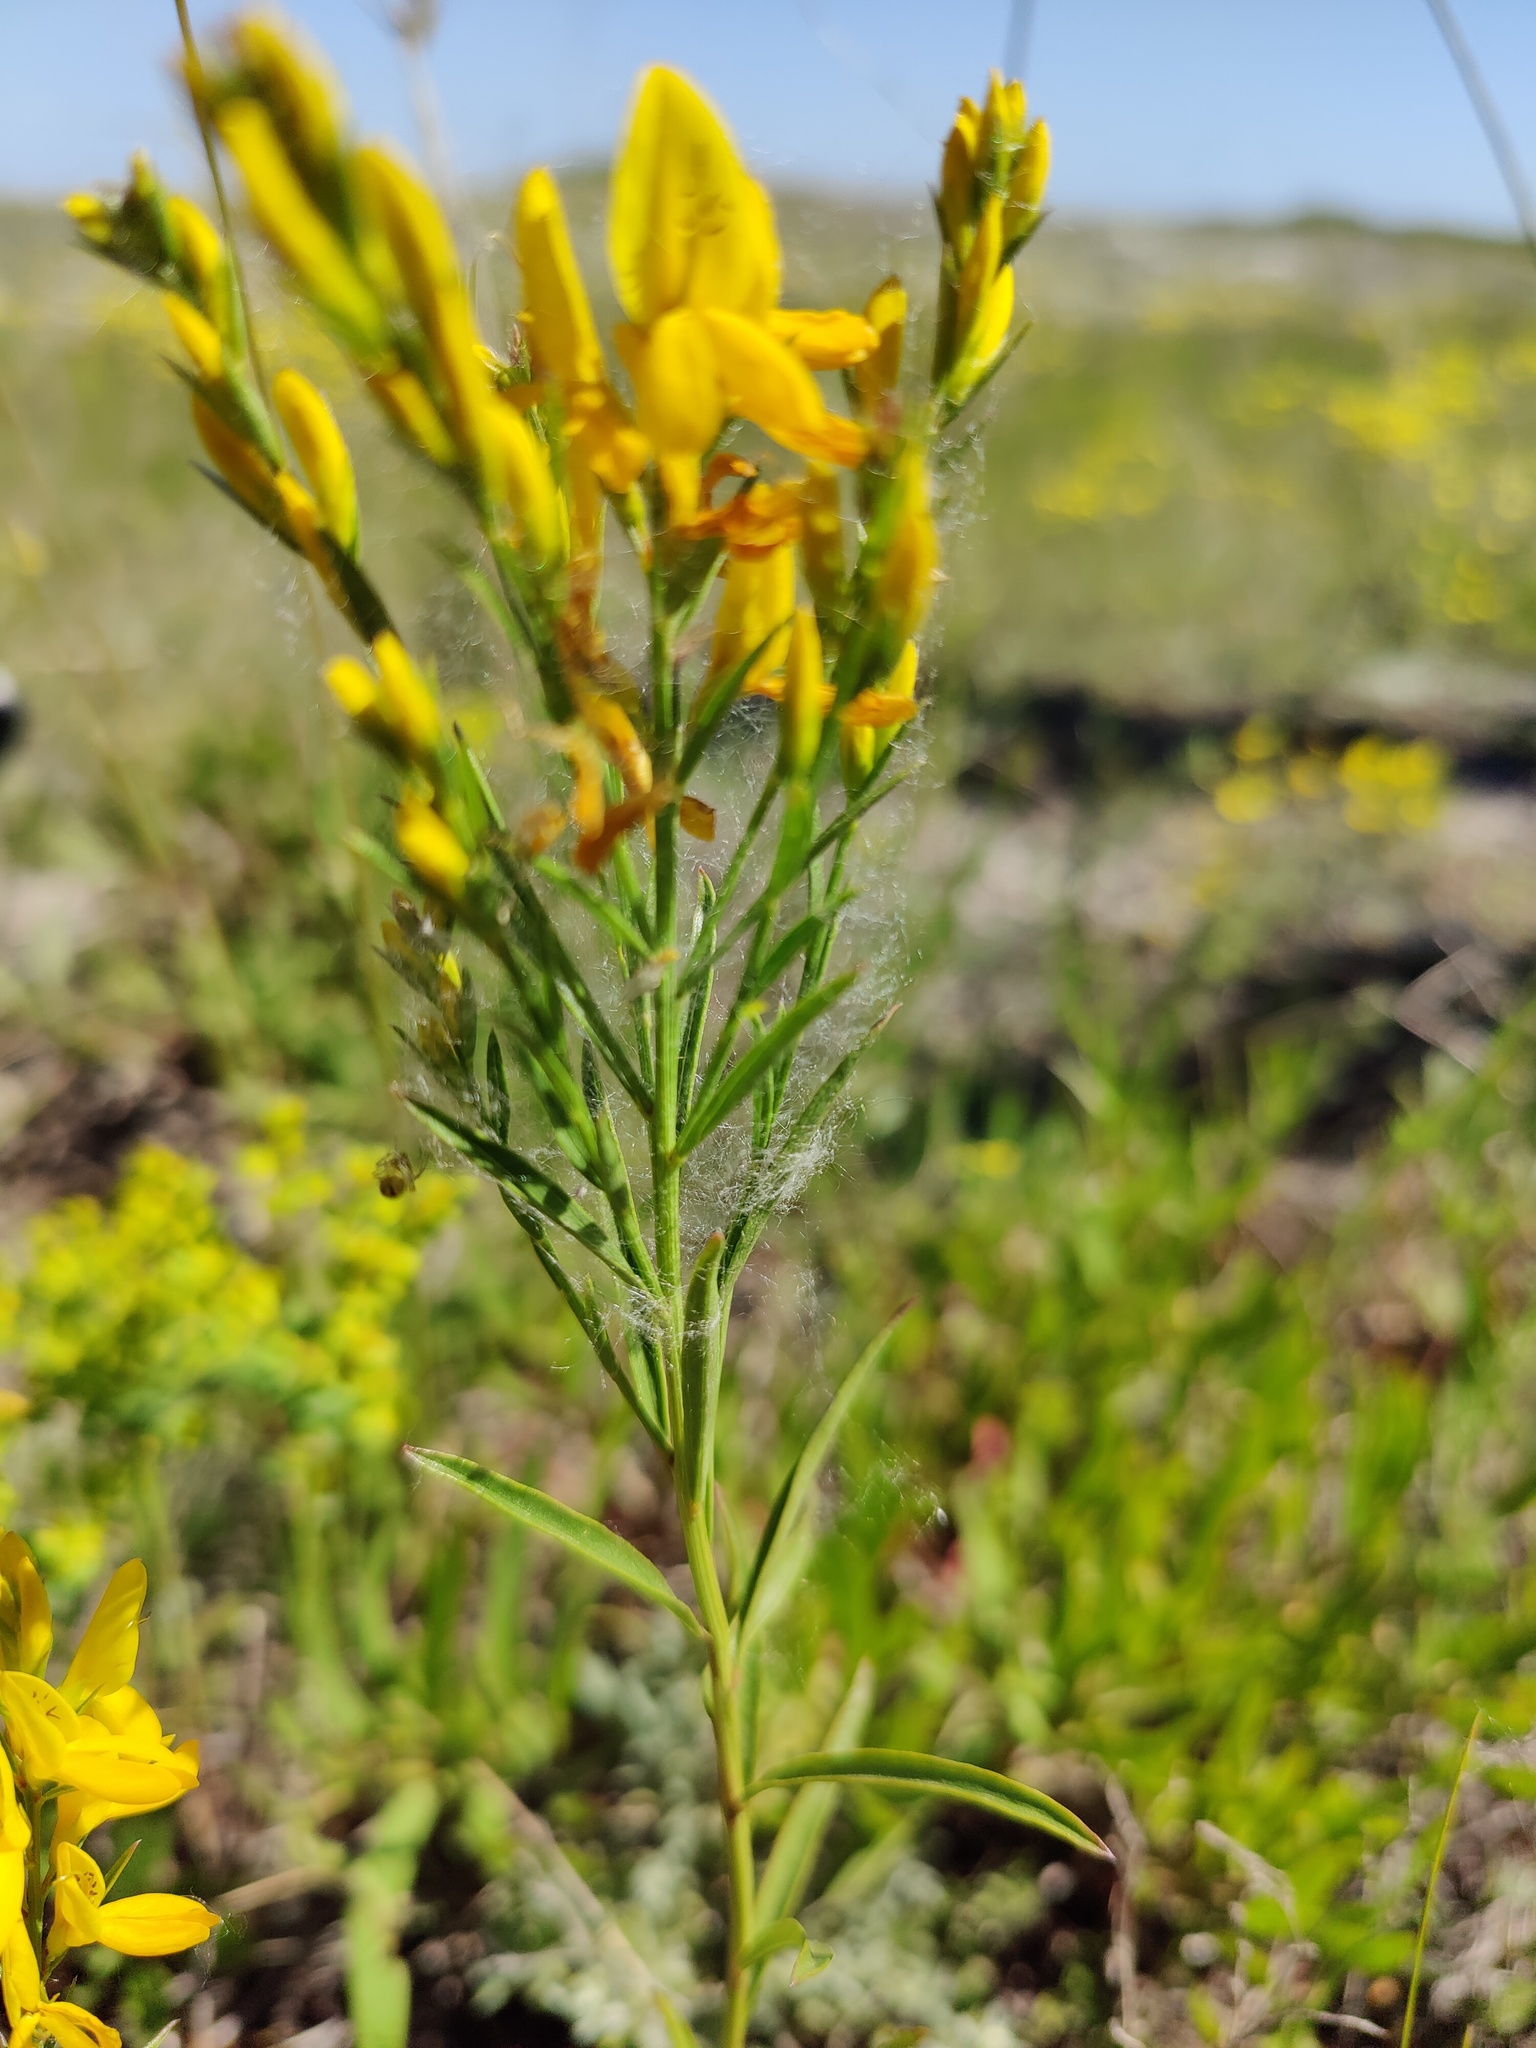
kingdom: Plantae
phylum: Tracheophyta
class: Magnoliopsida
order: Fabales
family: Fabaceae
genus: Genista
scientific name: Genista tinctoria
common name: Dyer's greenweed
